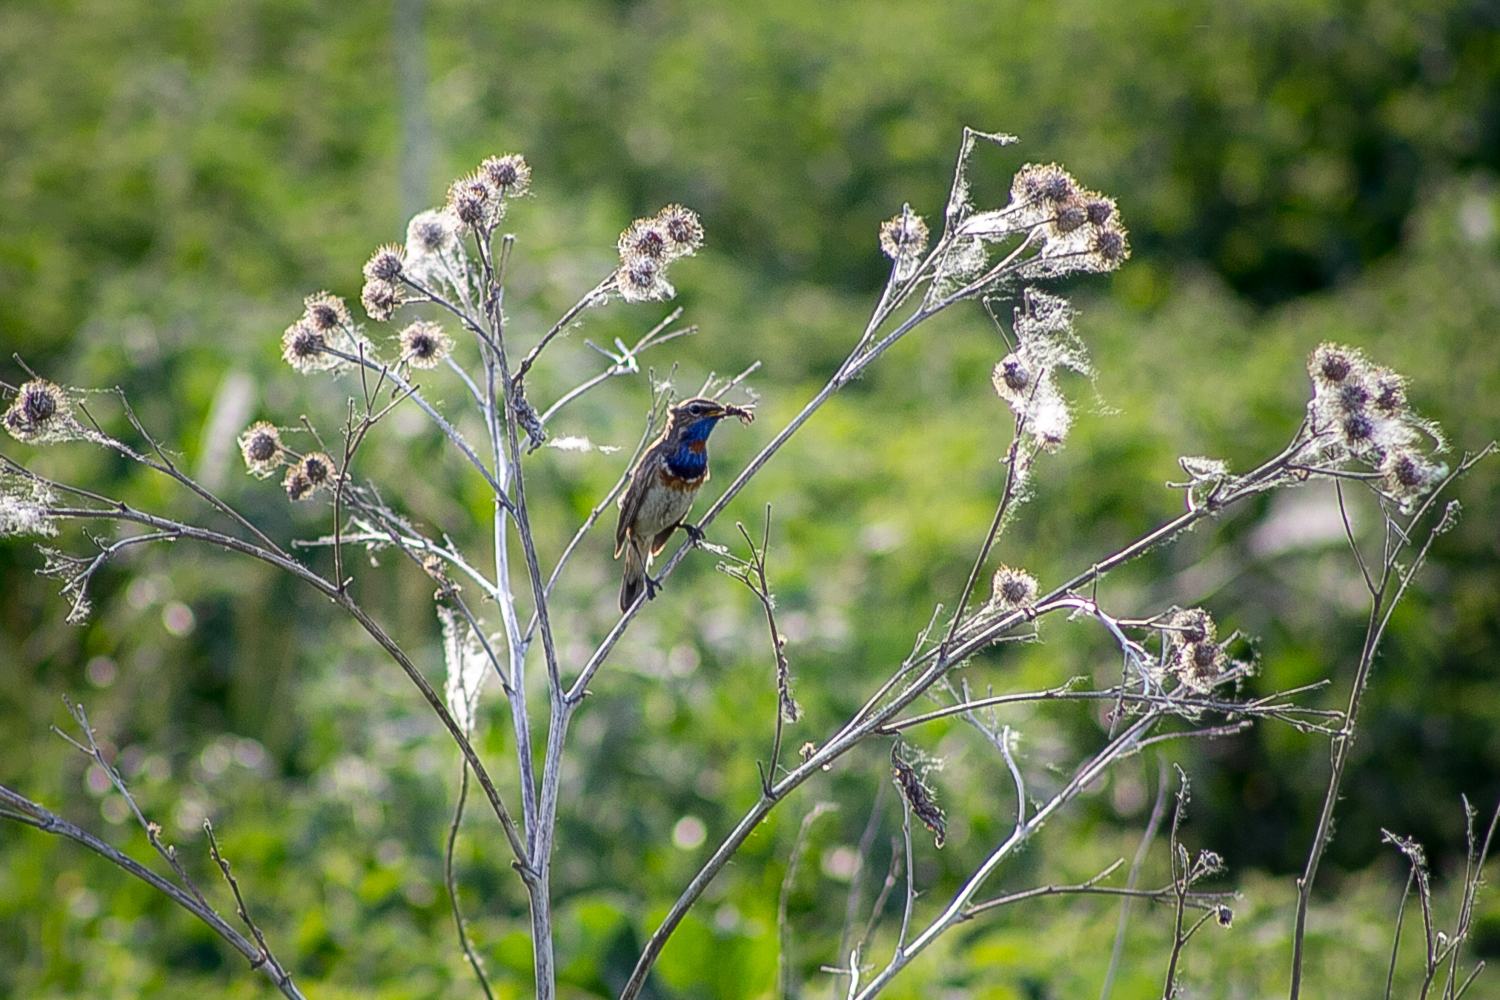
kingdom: Animalia
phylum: Chordata
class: Aves
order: Passeriformes
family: Muscicapidae
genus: Luscinia
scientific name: Luscinia svecica
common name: Bluethroat
